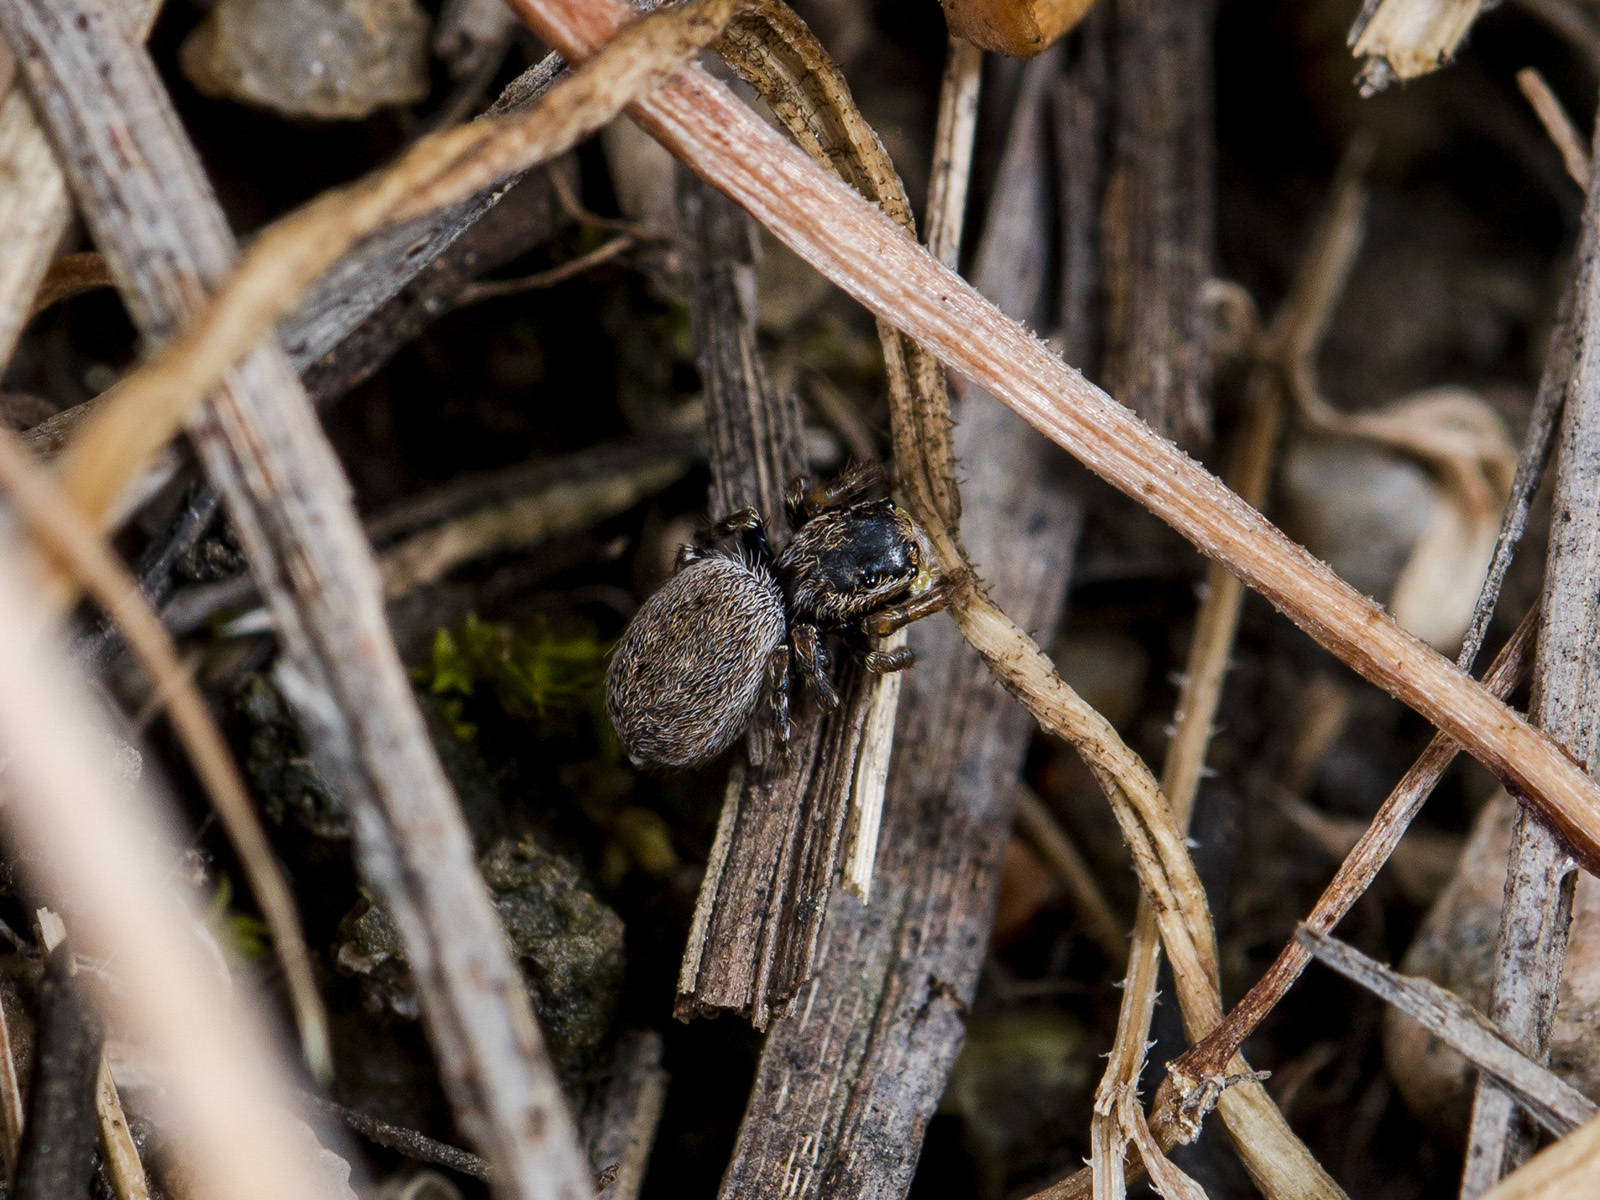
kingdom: Animalia
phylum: Arthropoda
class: Arachnida
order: Araneae
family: Salticidae
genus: Talavera
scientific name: Talavera petrensis
